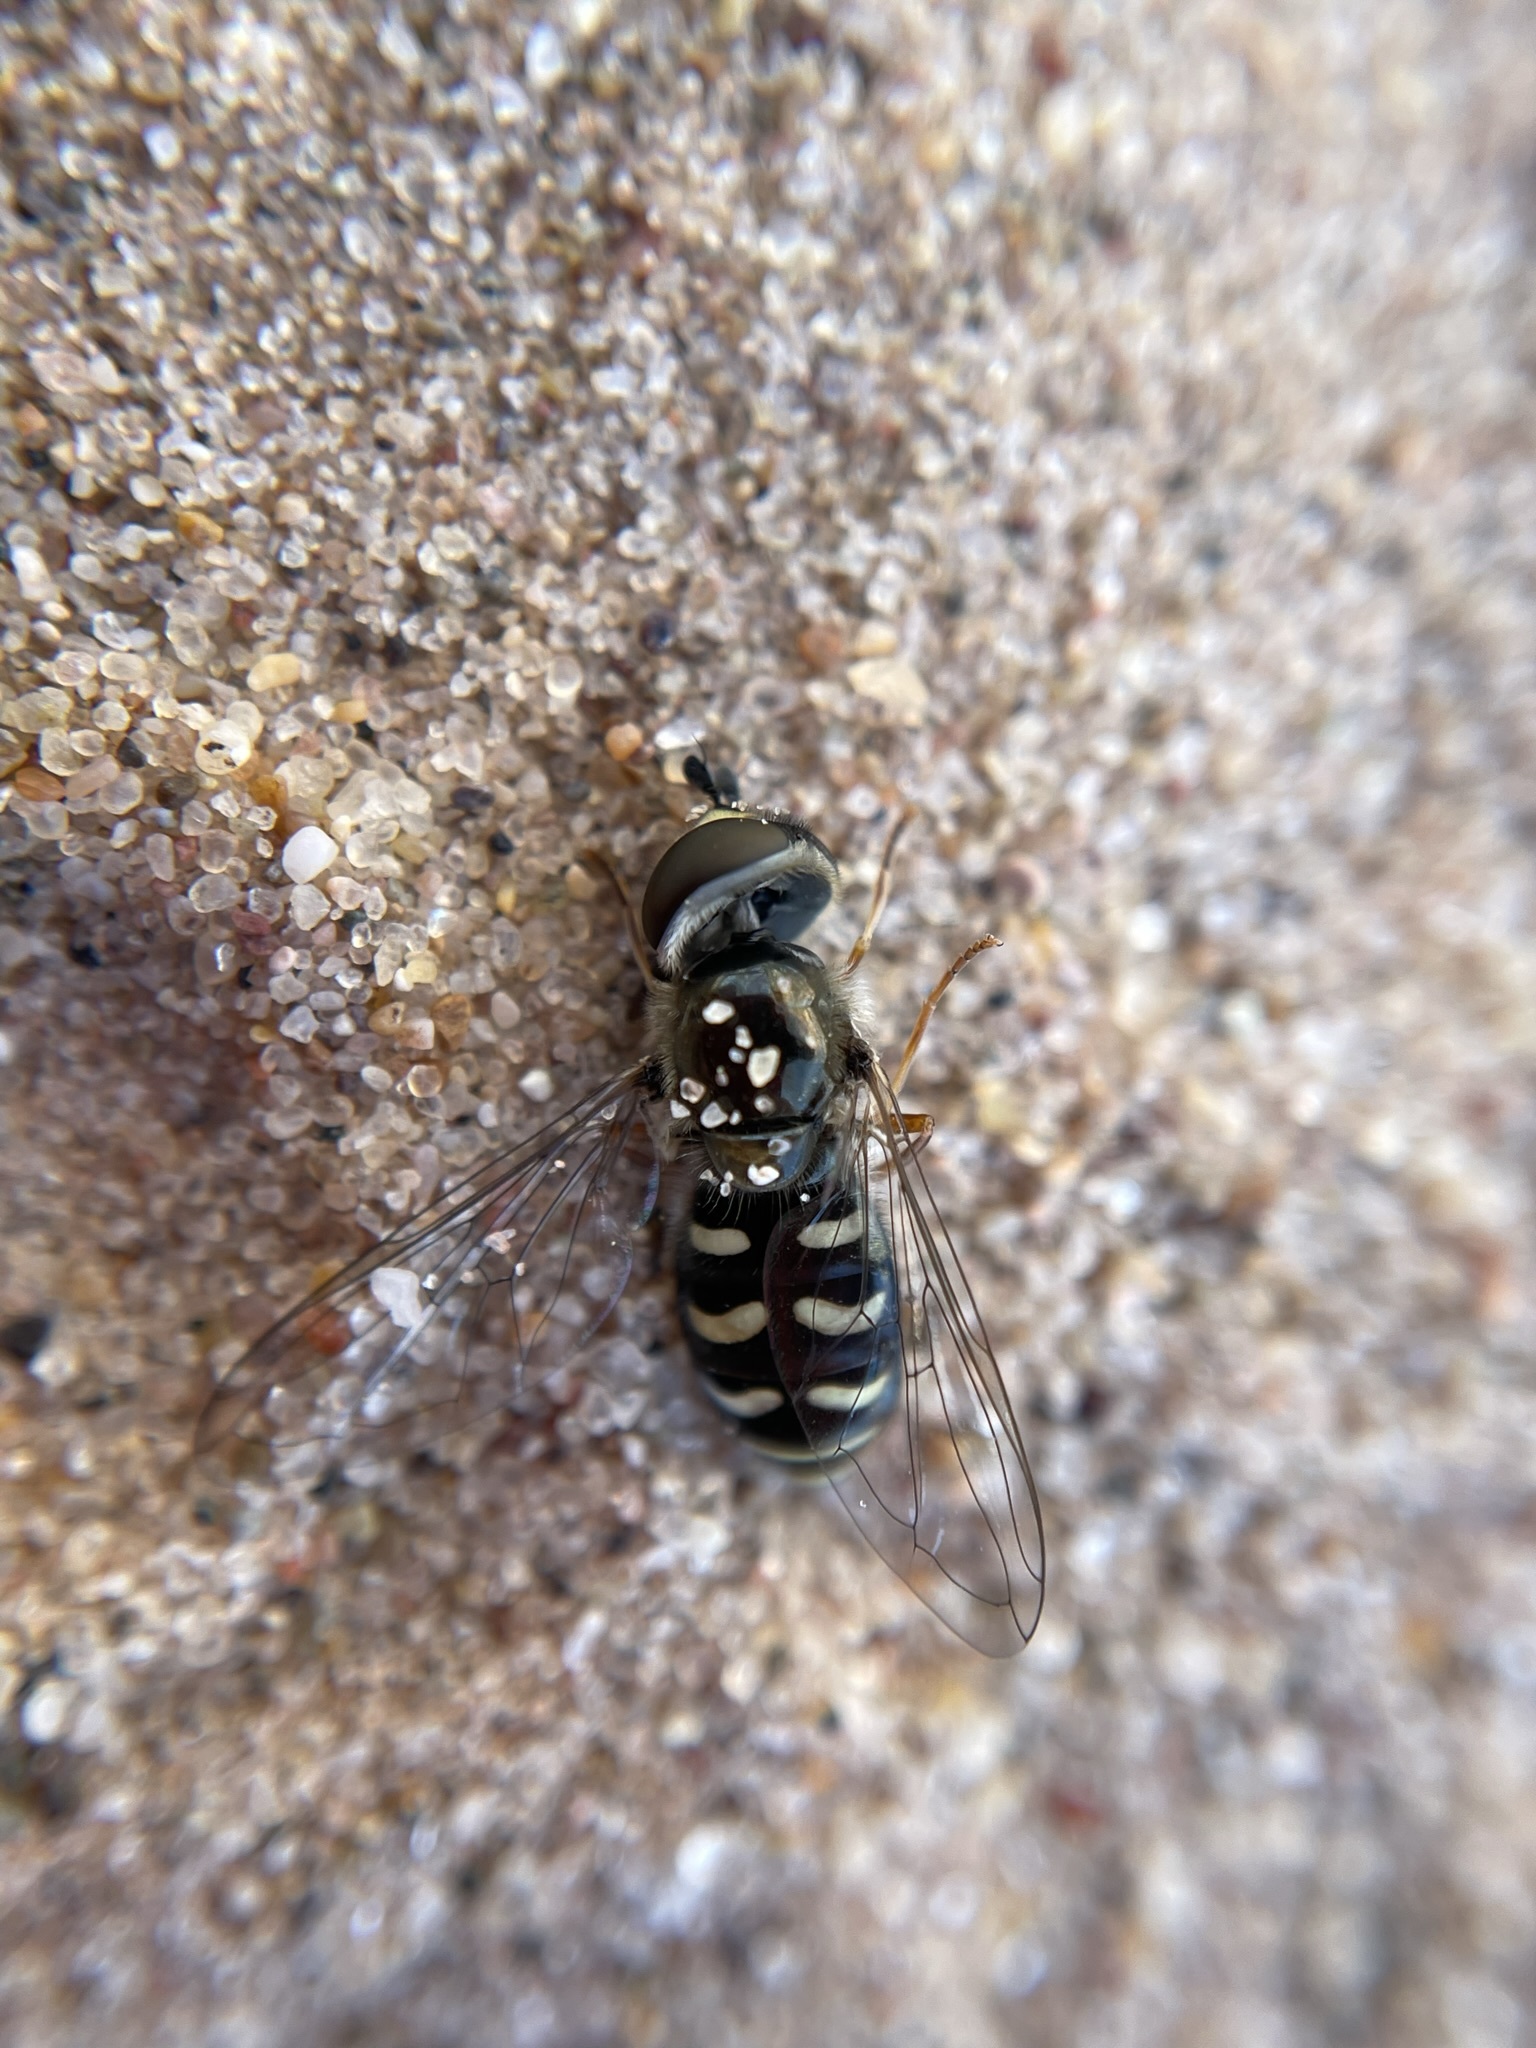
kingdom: Animalia
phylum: Arthropoda
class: Insecta
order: Diptera
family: Syrphidae
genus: Eupeodes
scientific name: Eupeodes volucris
